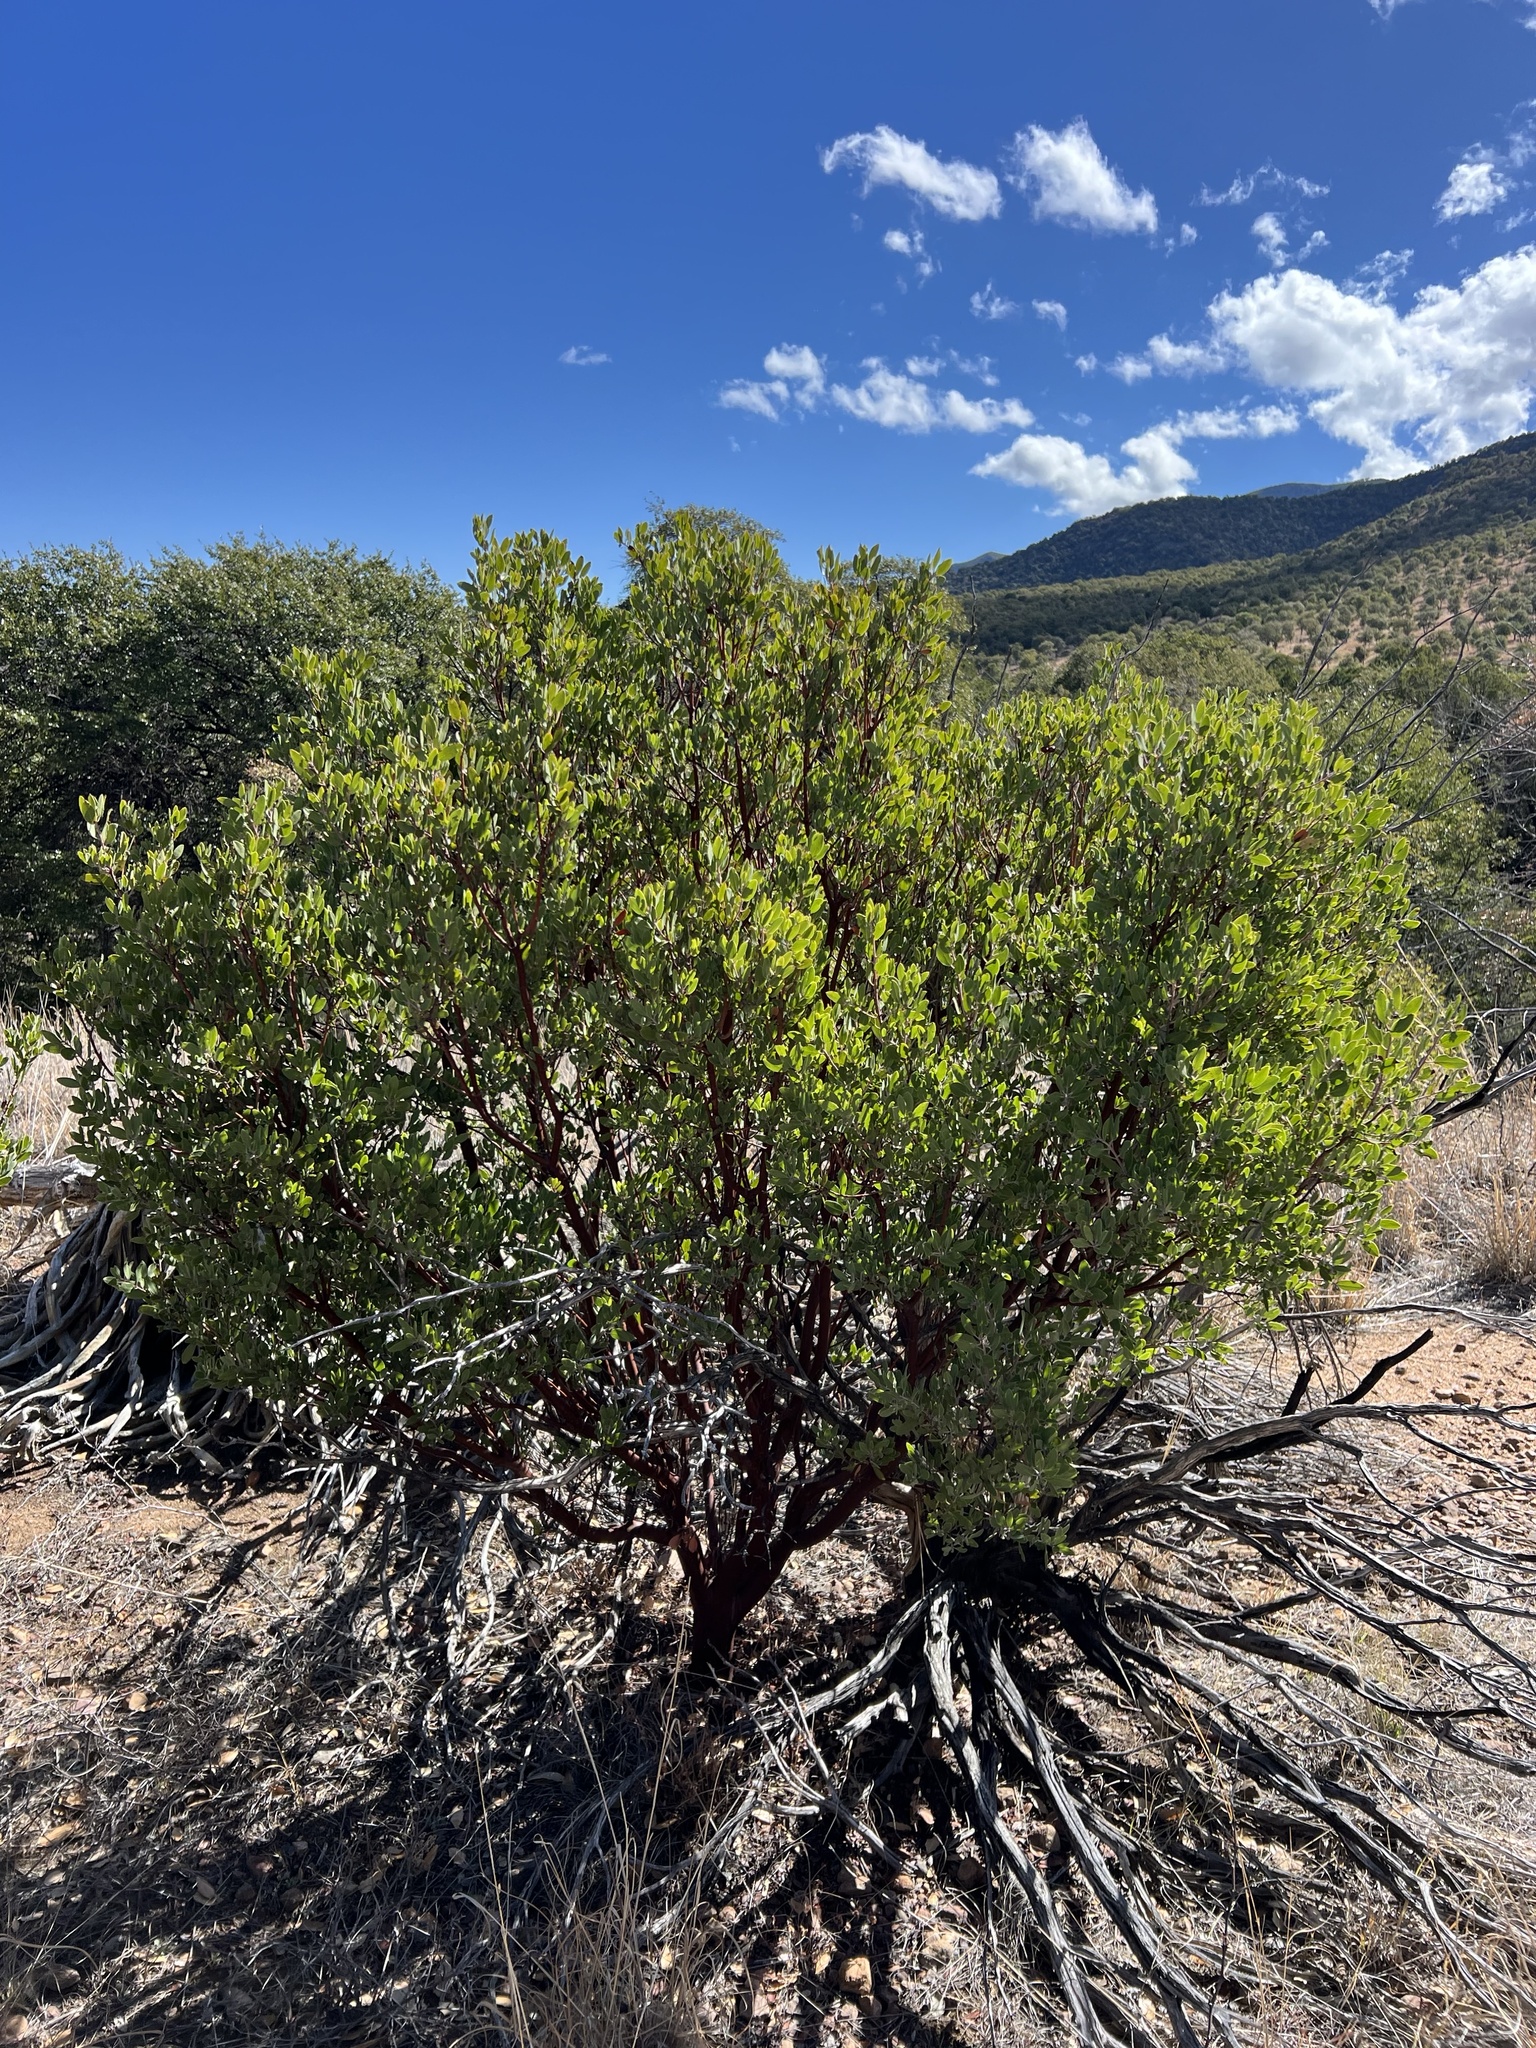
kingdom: Plantae
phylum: Tracheophyta
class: Magnoliopsida
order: Ericales
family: Ericaceae
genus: Arctostaphylos
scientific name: Arctostaphylos pungens
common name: Mexican manzanita
